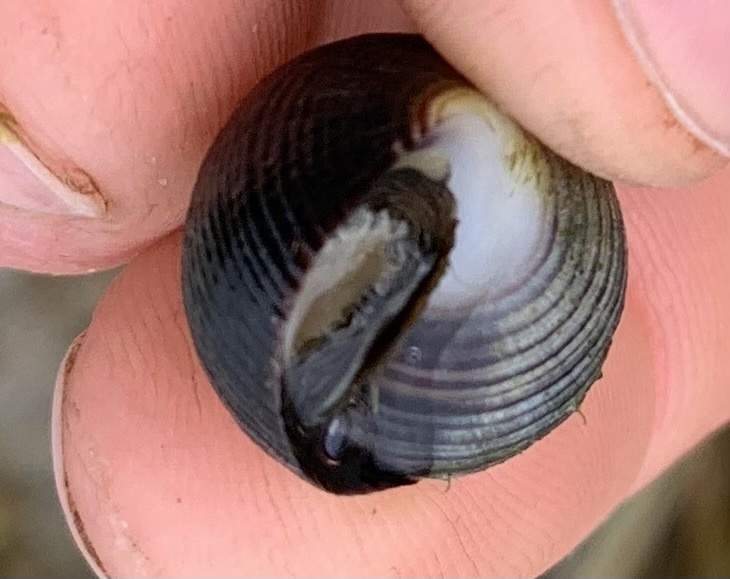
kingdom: Animalia
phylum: Mollusca
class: Gastropoda
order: Littorinimorpha
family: Littorinidae
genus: Littorina
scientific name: Littorina littorea
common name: Common periwinkle
